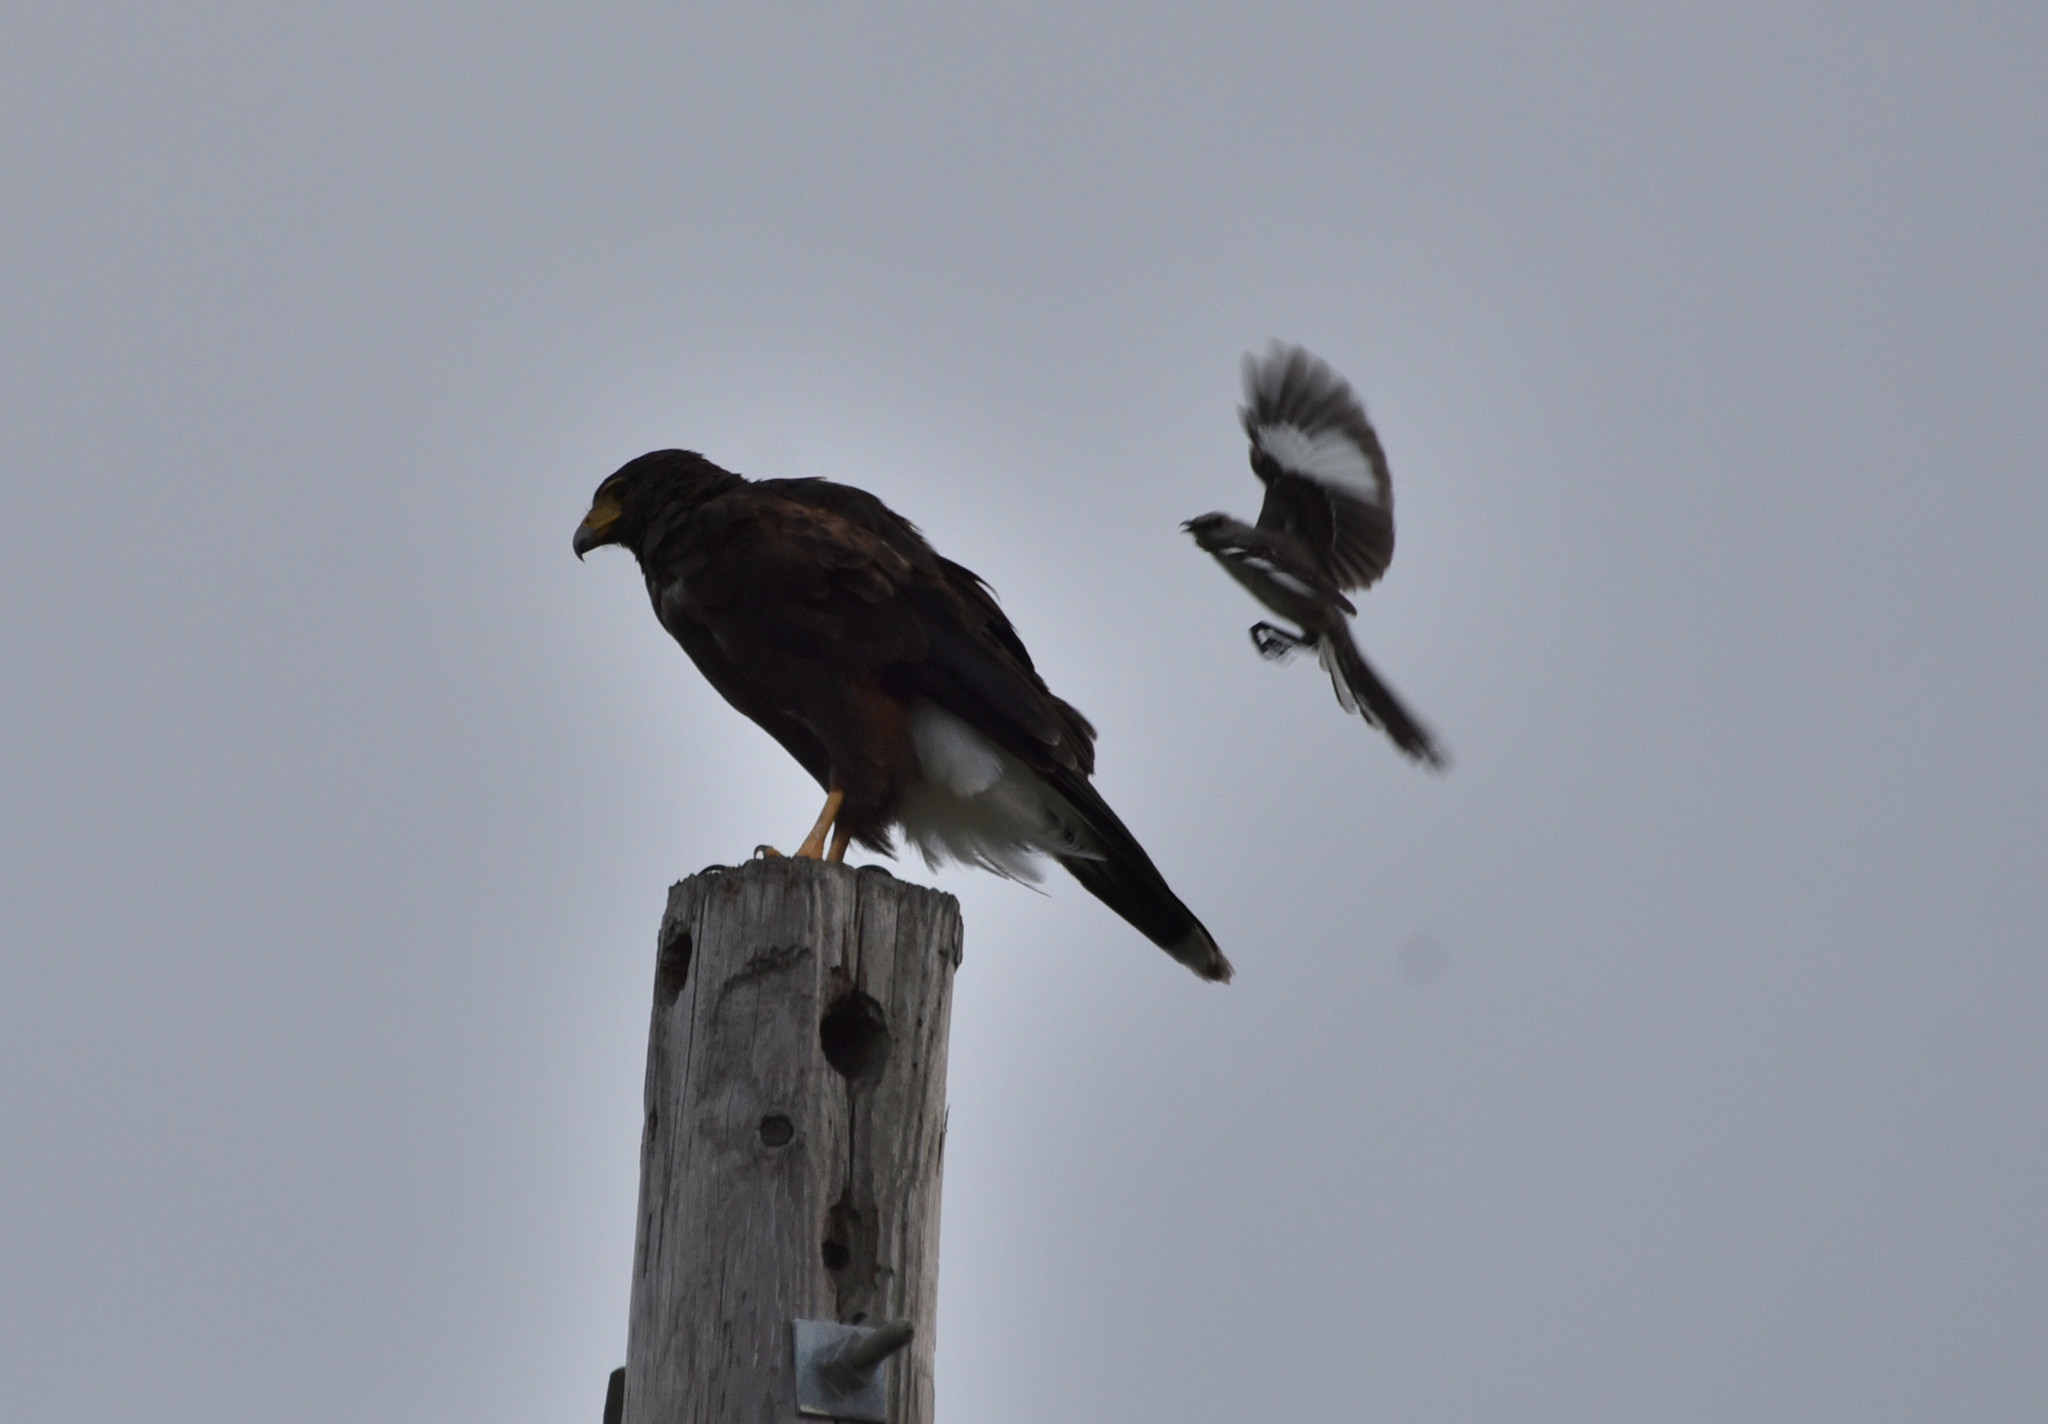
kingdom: Animalia
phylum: Chordata
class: Aves
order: Accipitriformes
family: Accipitridae
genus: Parabuteo
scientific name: Parabuteo unicinctus
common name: Harris's hawk
